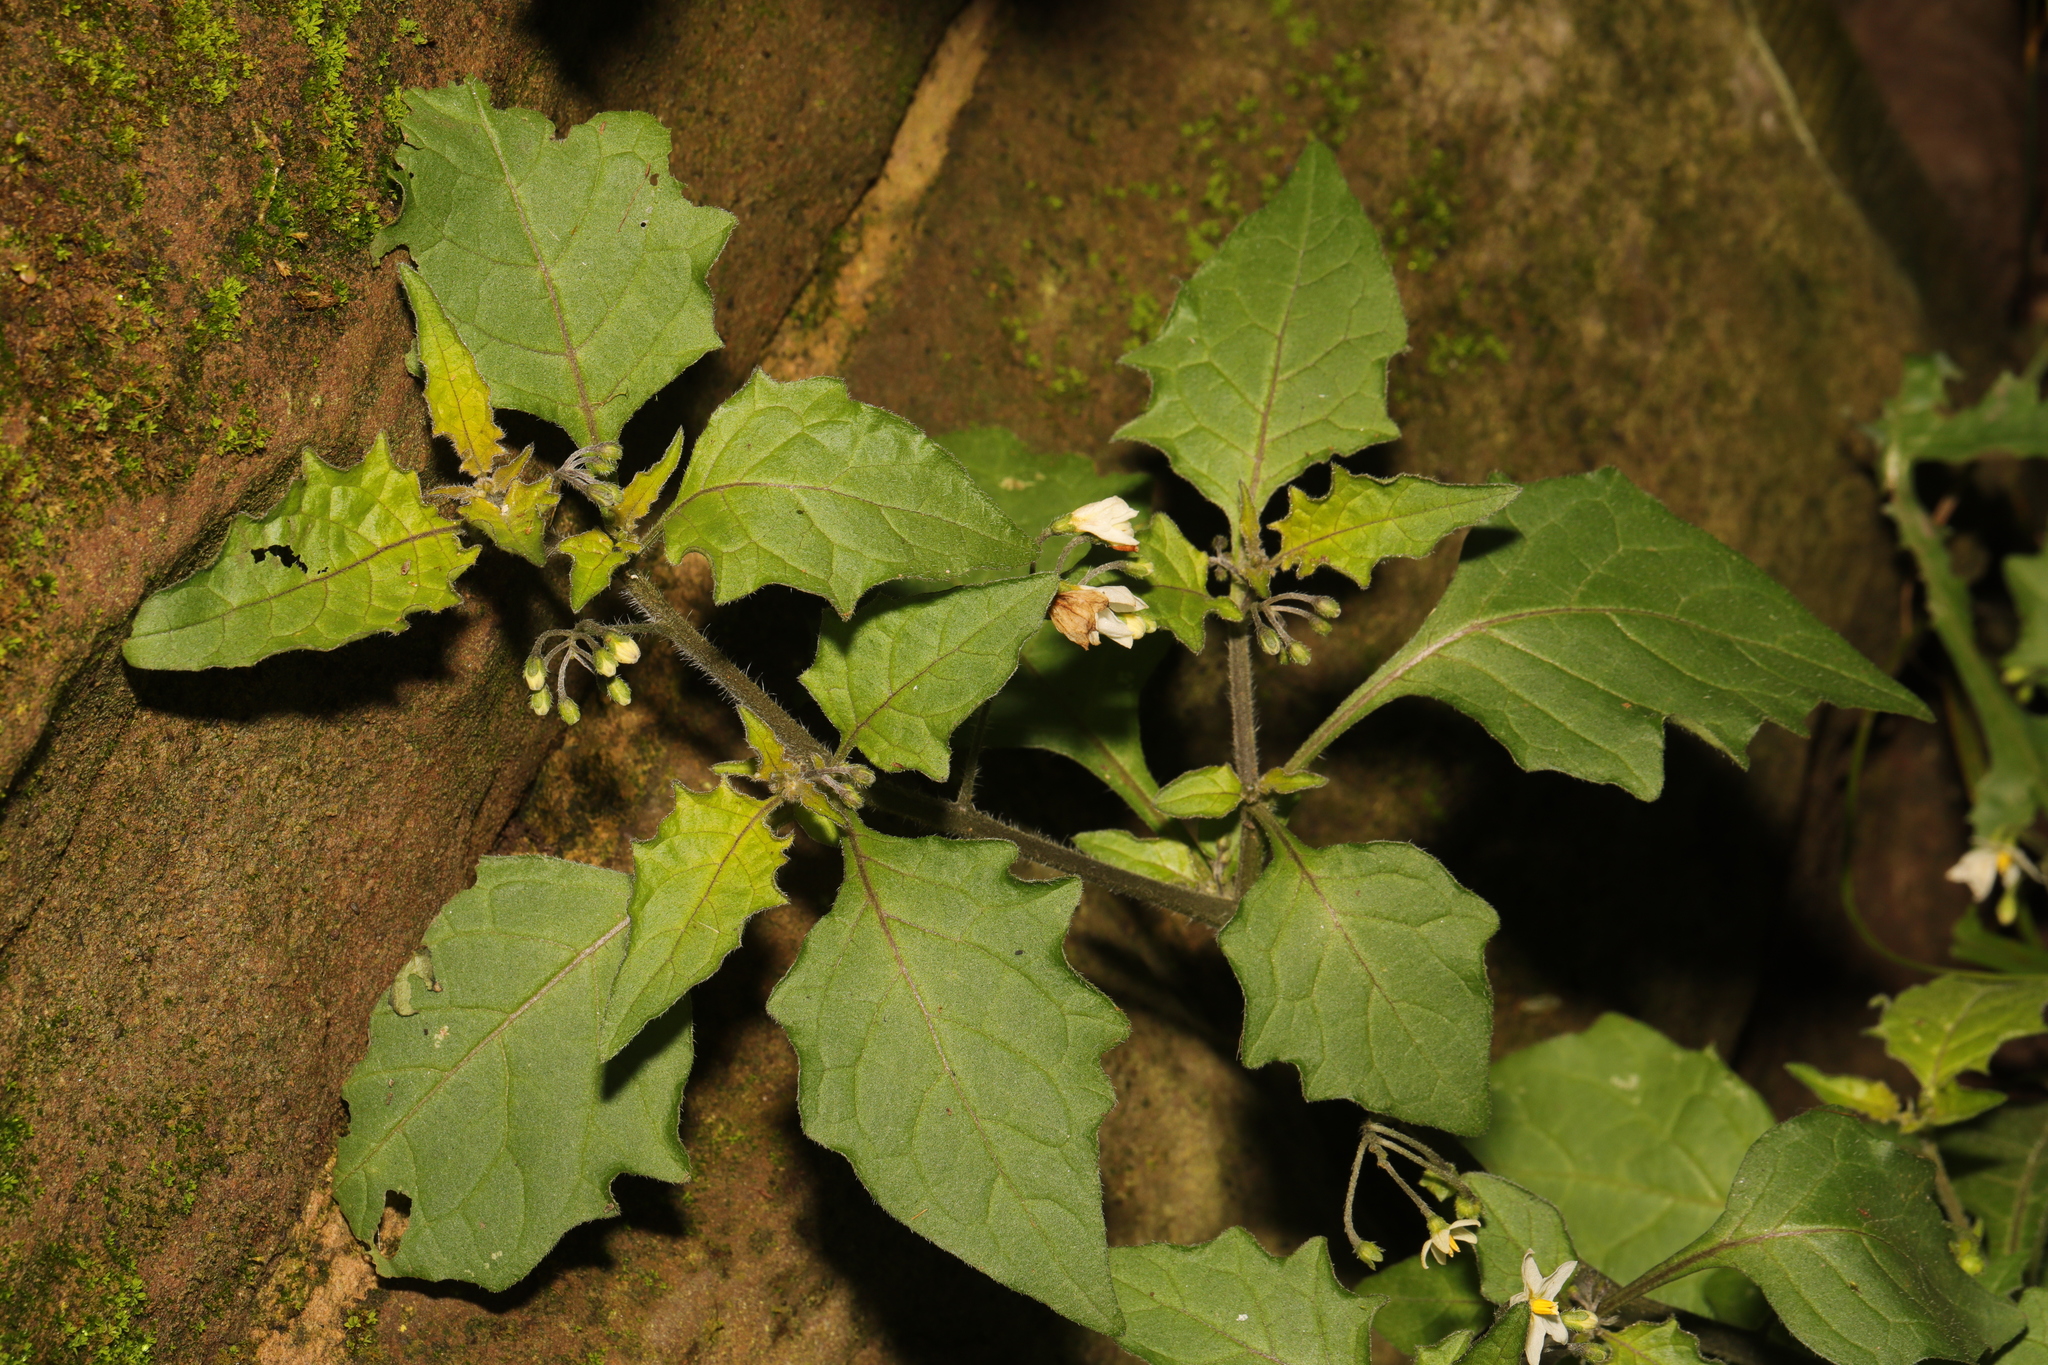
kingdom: Plantae
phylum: Tracheophyta
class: Magnoliopsida
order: Solanales
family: Solanaceae
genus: Solanum
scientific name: Solanum nigrum
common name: Black nightshade
